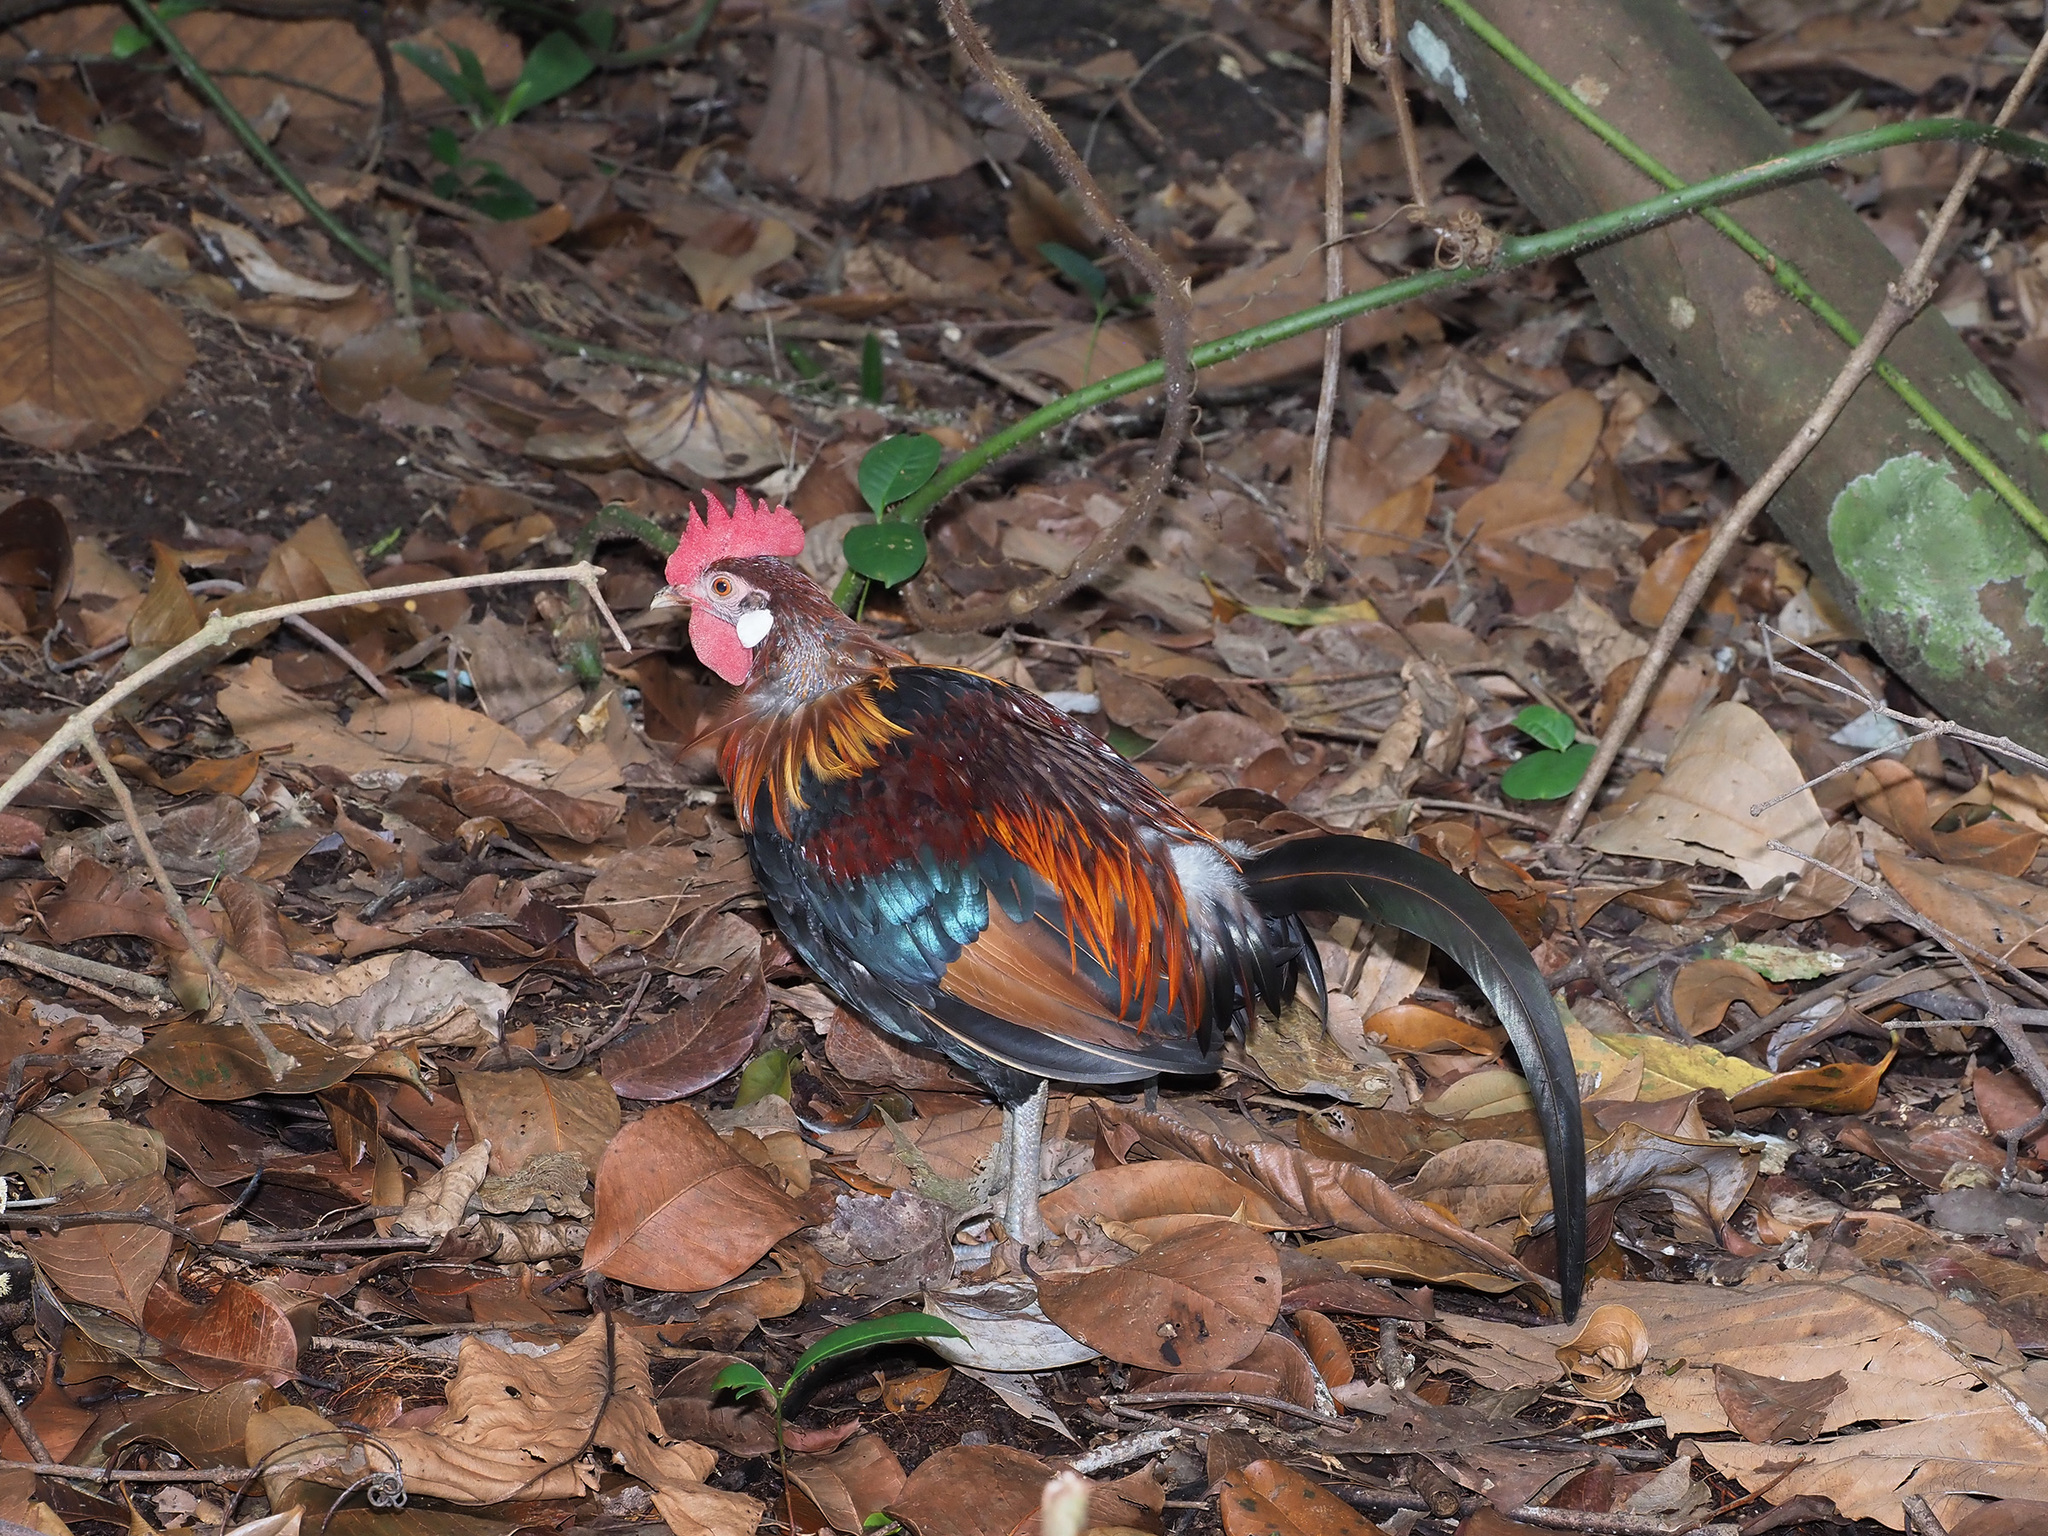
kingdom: Animalia
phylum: Chordata
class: Aves
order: Galliformes
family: Phasianidae
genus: Gallus
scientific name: Gallus gallus
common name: Red junglefowl
